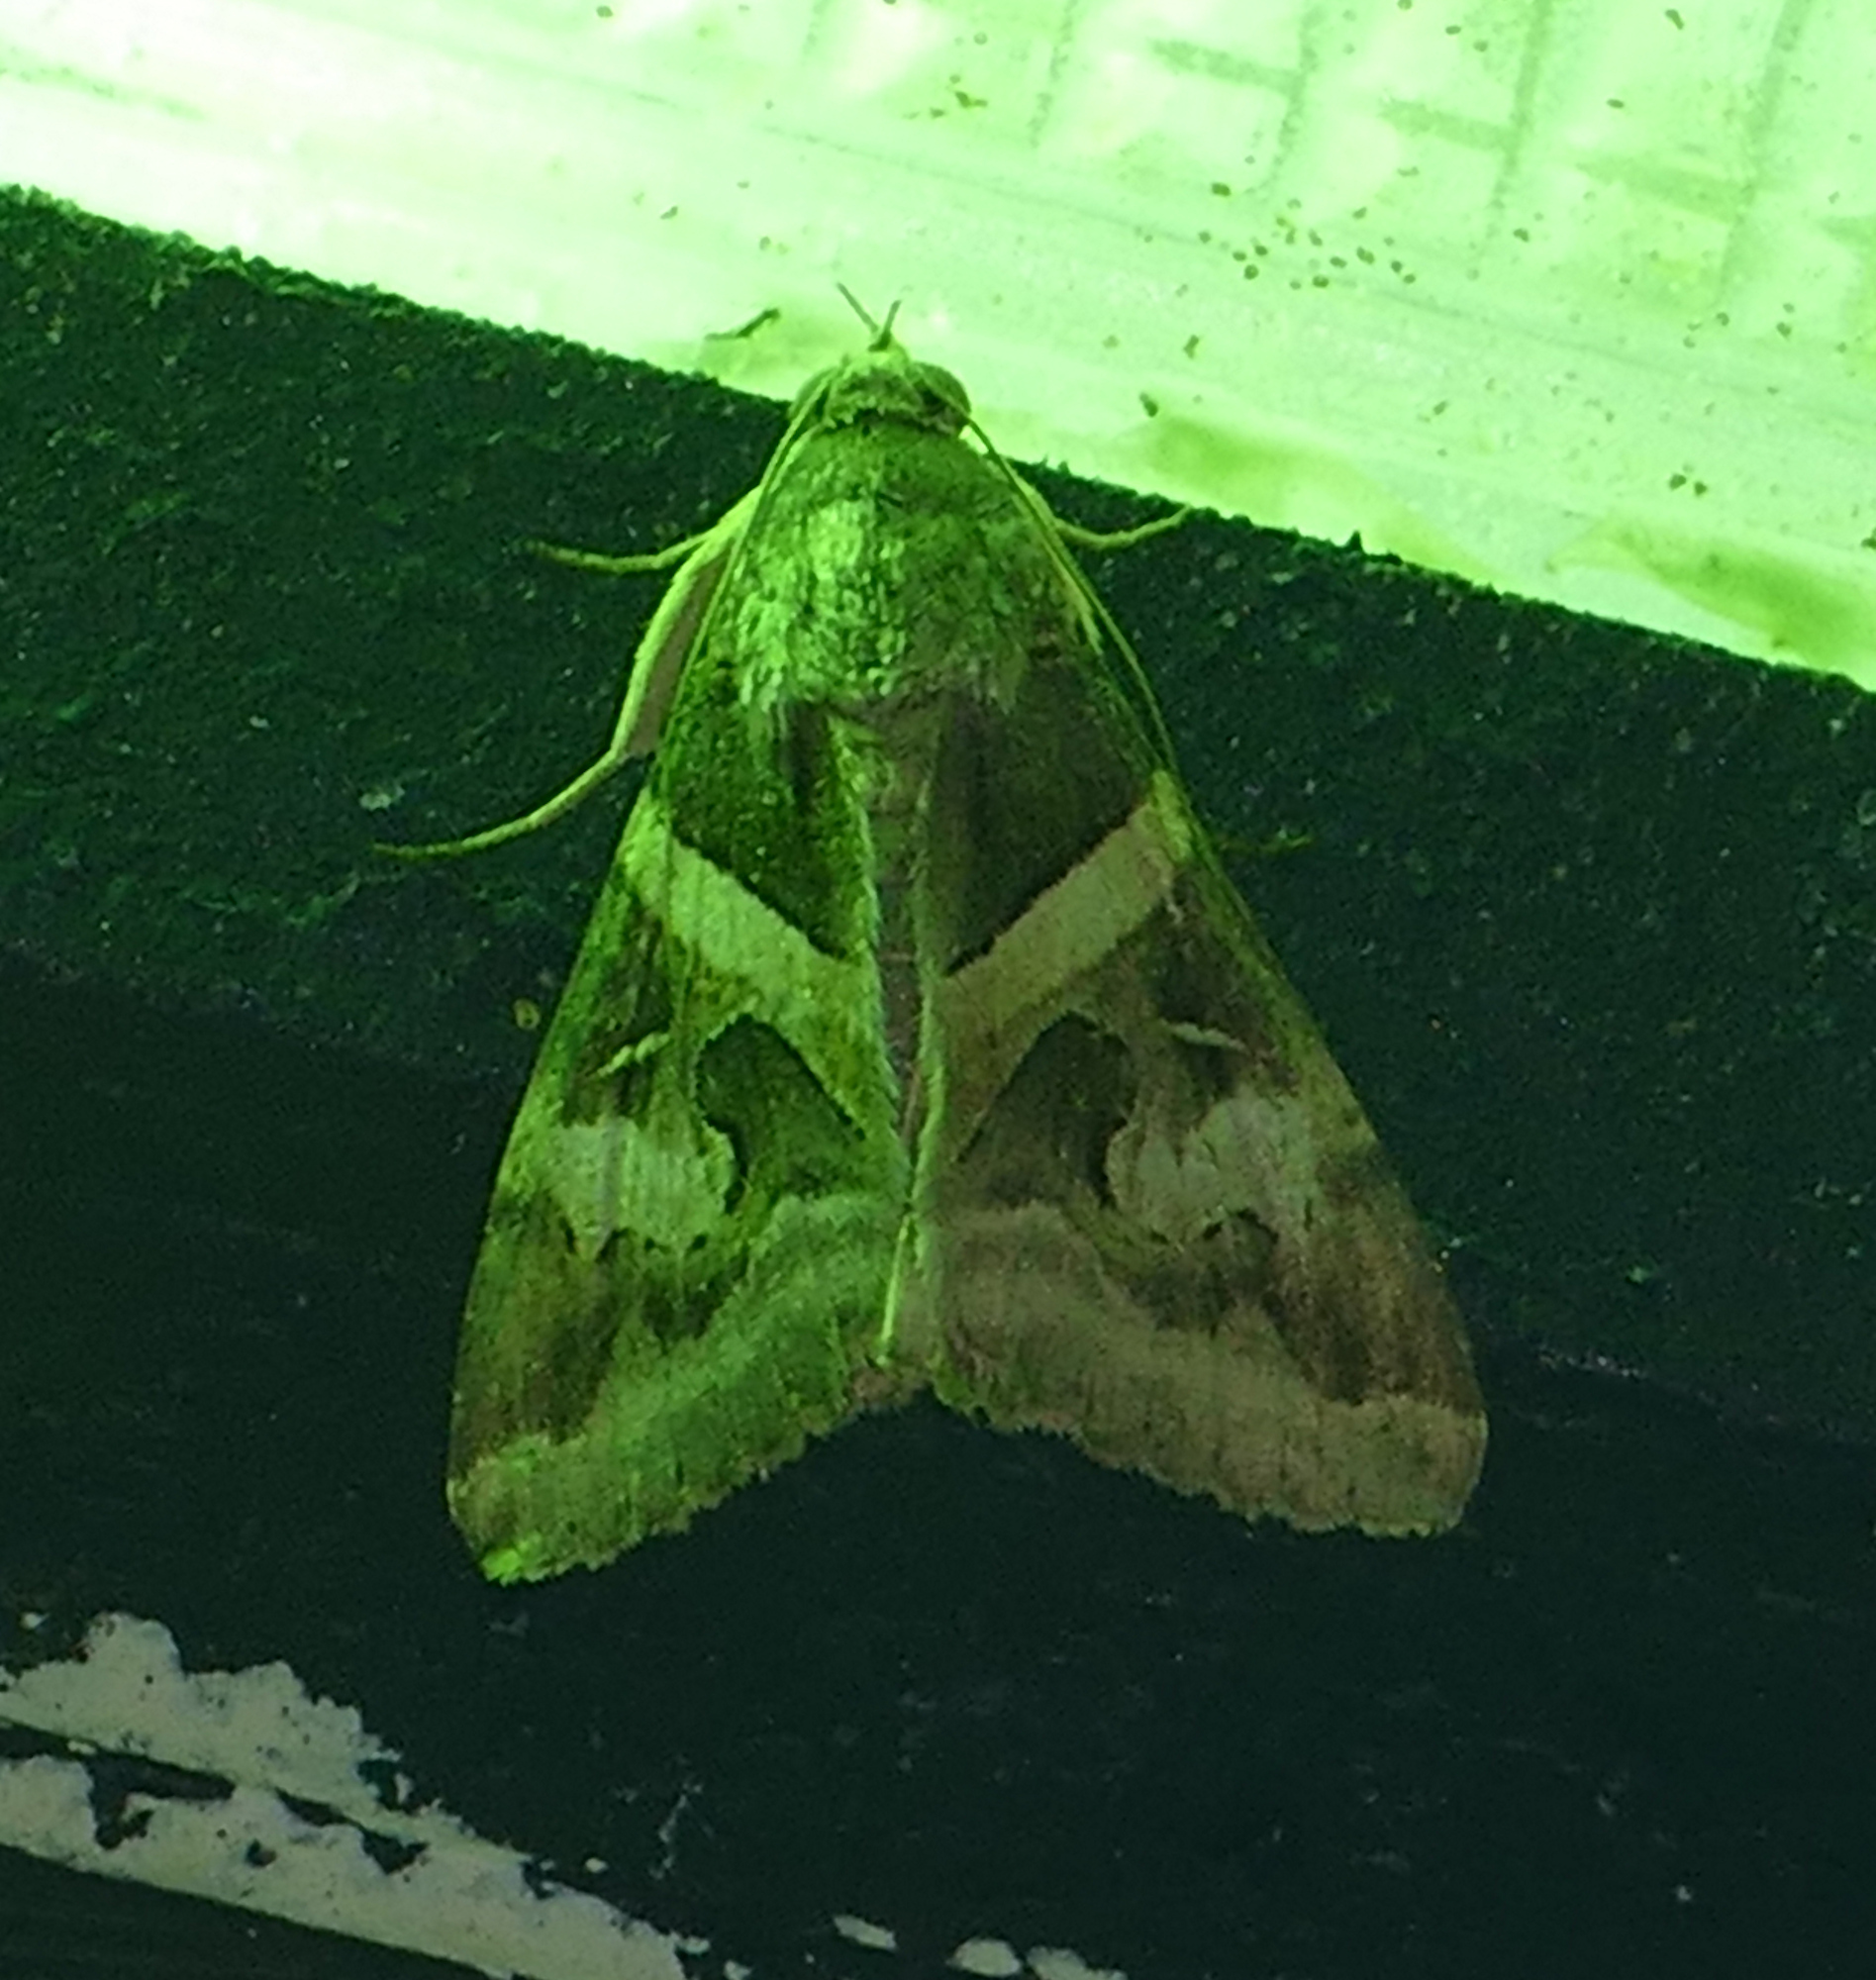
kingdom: Animalia
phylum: Arthropoda
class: Insecta
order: Lepidoptera
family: Erebidae
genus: Melipotis
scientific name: Melipotis indomita
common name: Moth
